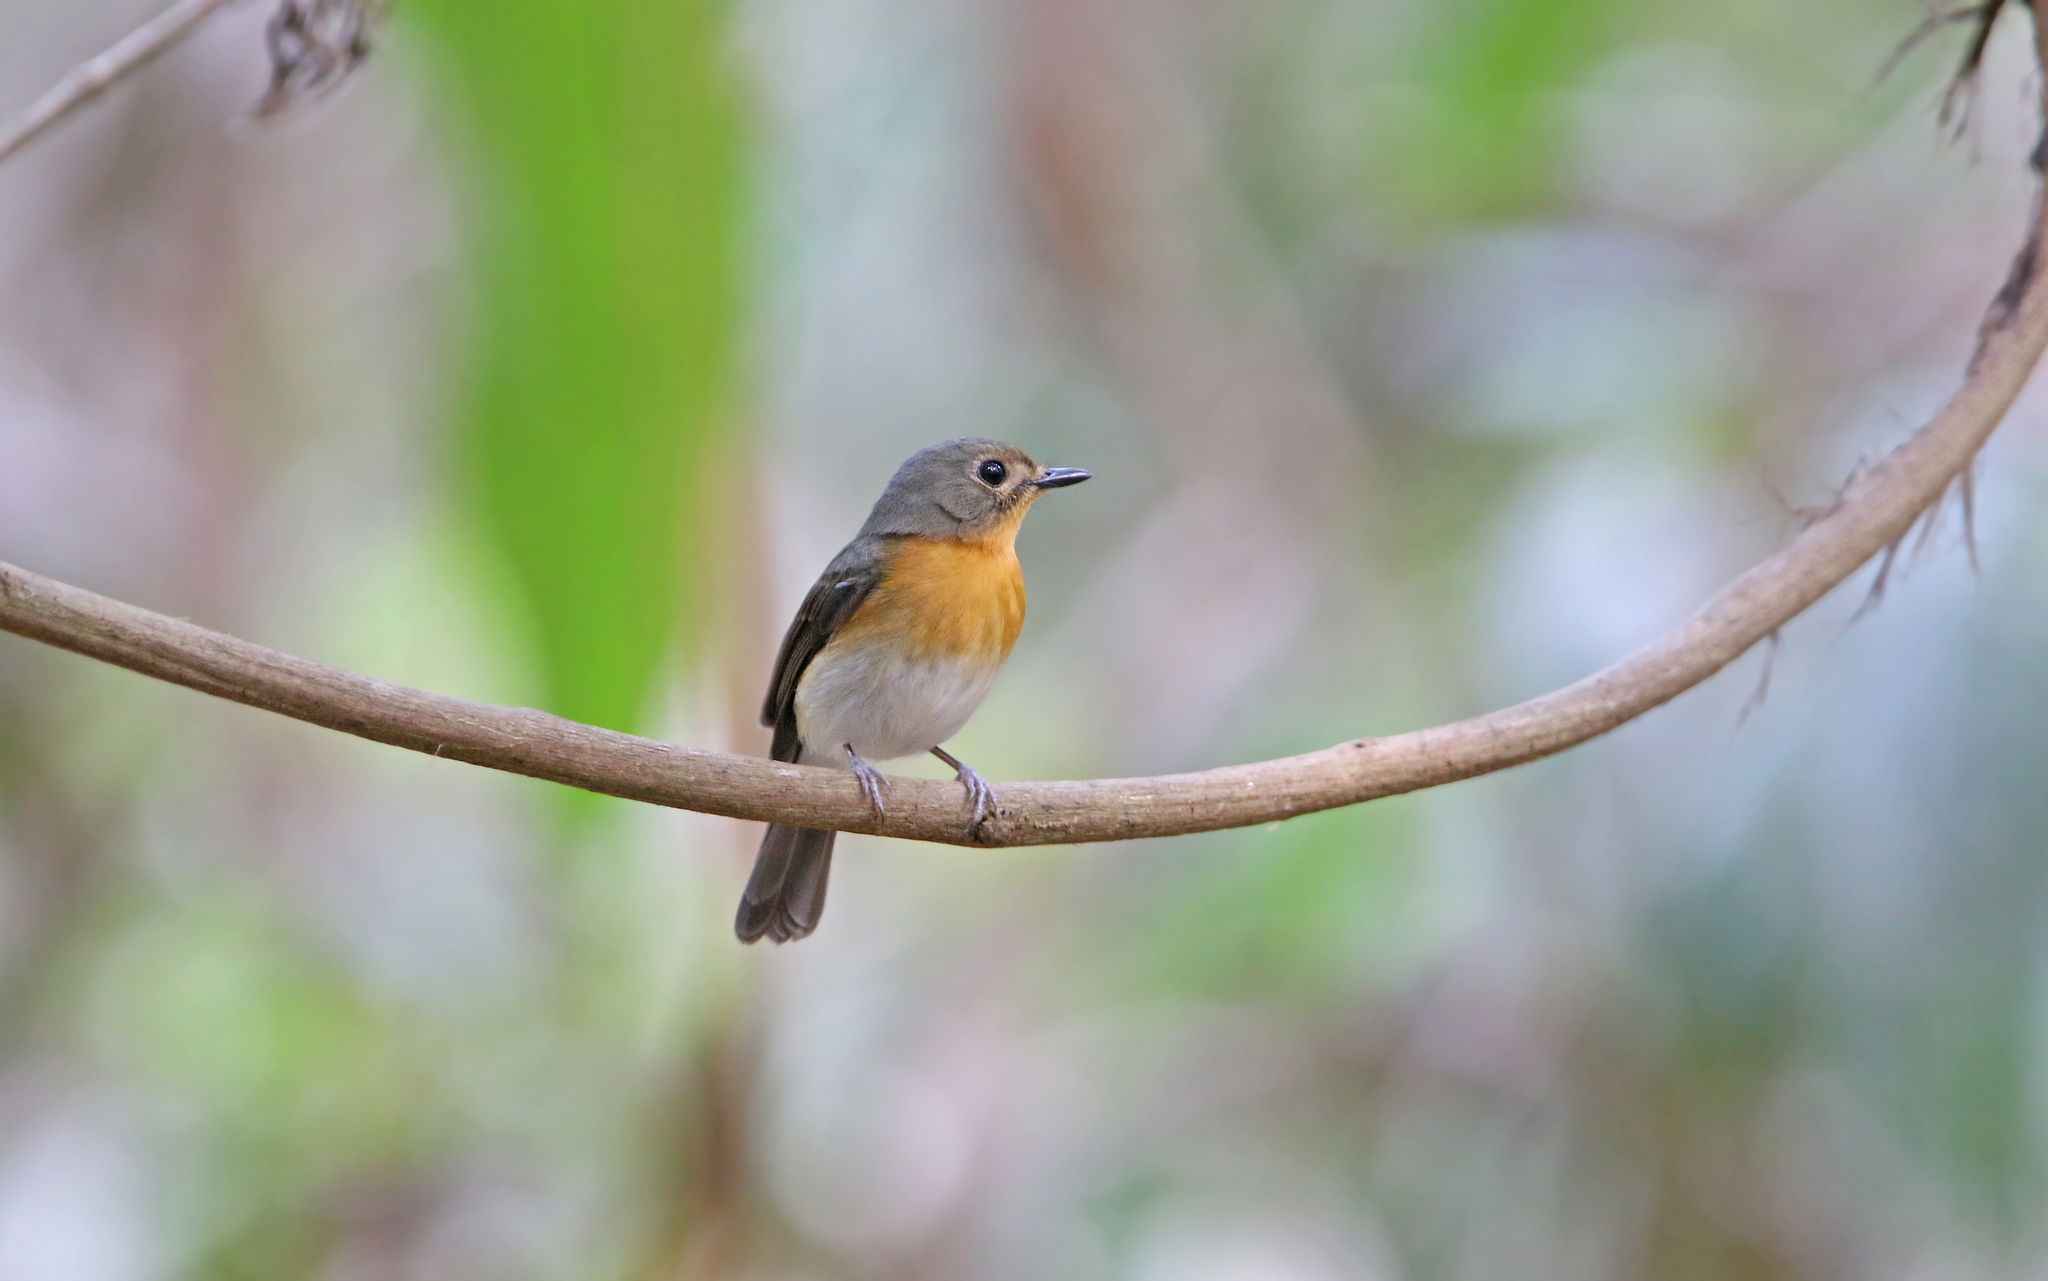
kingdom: Animalia
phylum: Chordata
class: Aves
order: Passeriformes
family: Muscicapidae
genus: Cyornis
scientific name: Cyornis tickelliae
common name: Tickell's blue flycatcher
